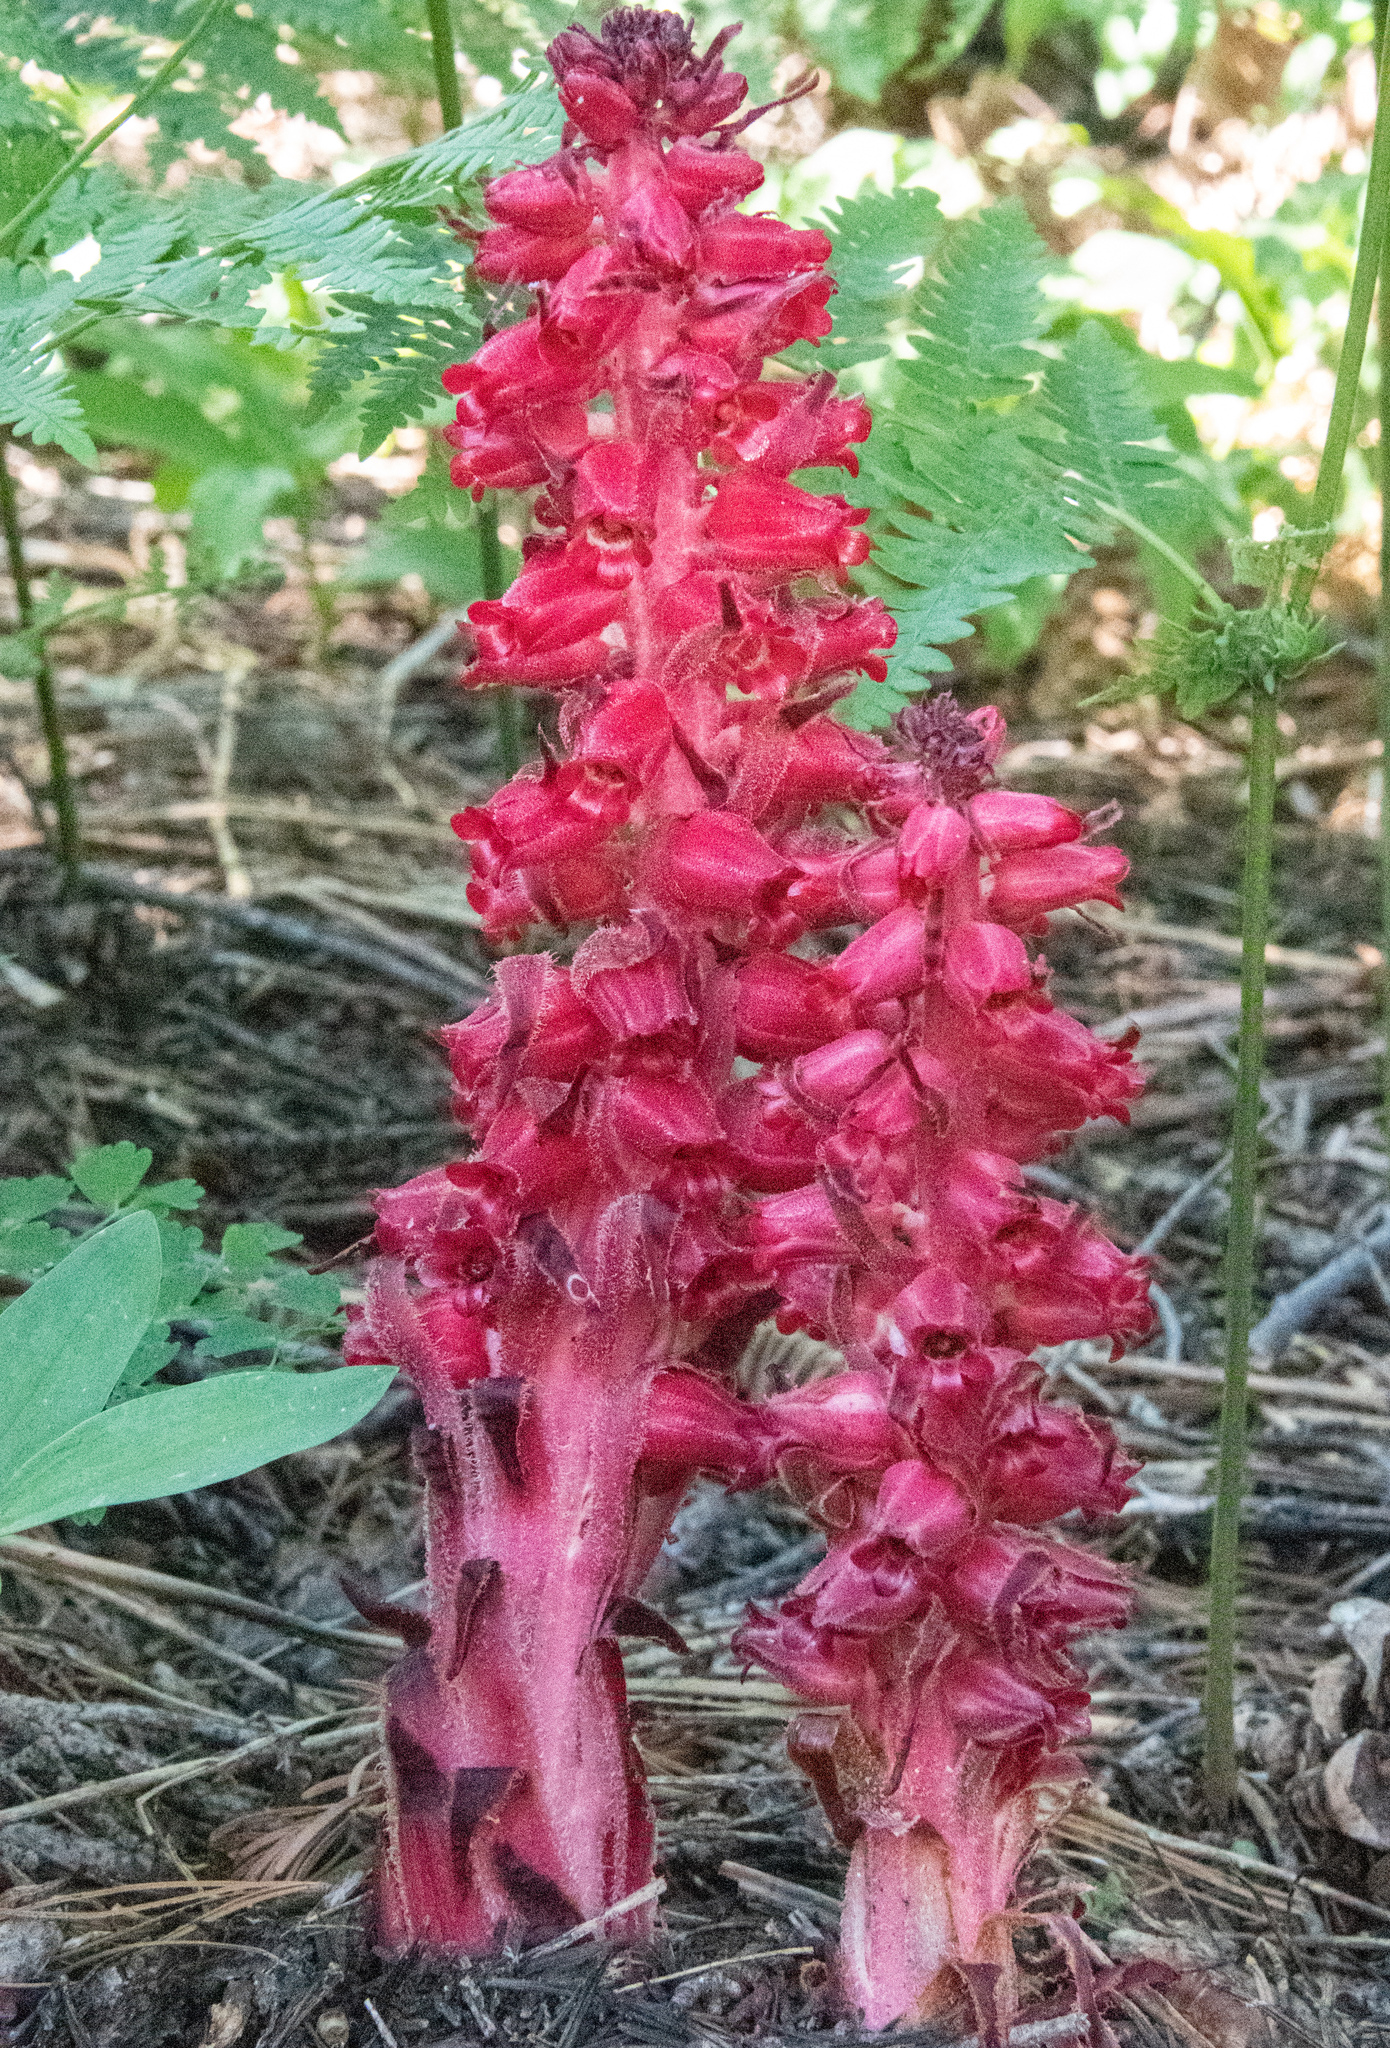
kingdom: Plantae
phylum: Tracheophyta
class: Magnoliopsida
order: Ericales
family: Ericaceae
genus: Sarcodes
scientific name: Sarcodes sanguinea
